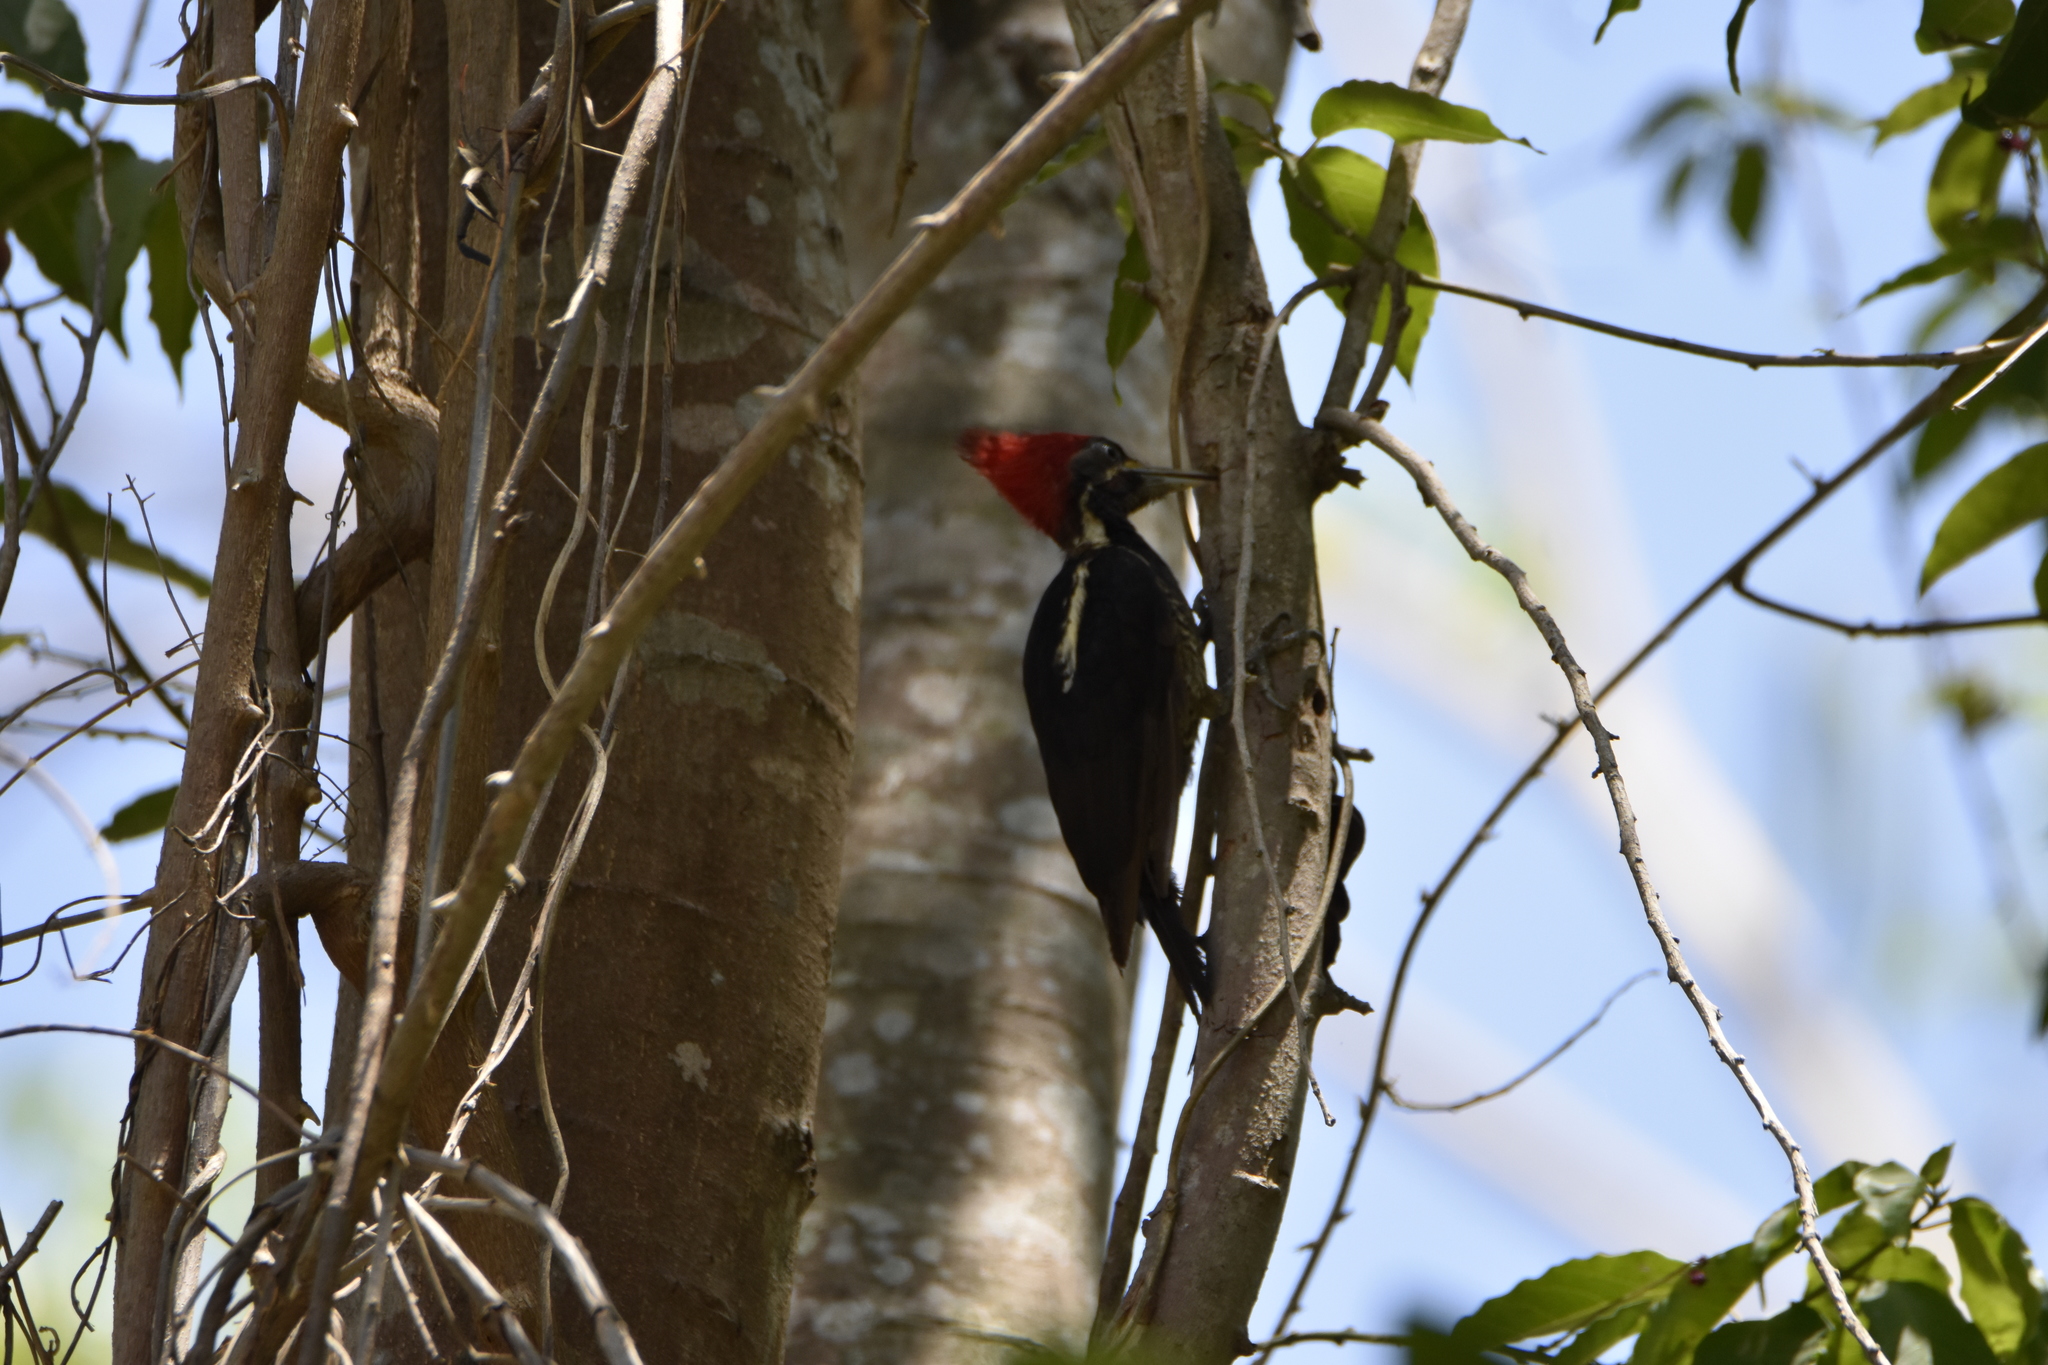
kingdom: Animalia
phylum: Chordata
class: Aves
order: Piciformes
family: Picidae
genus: Dryocopus
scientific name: Dryocopus lineatus
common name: Lineated woodpecker
